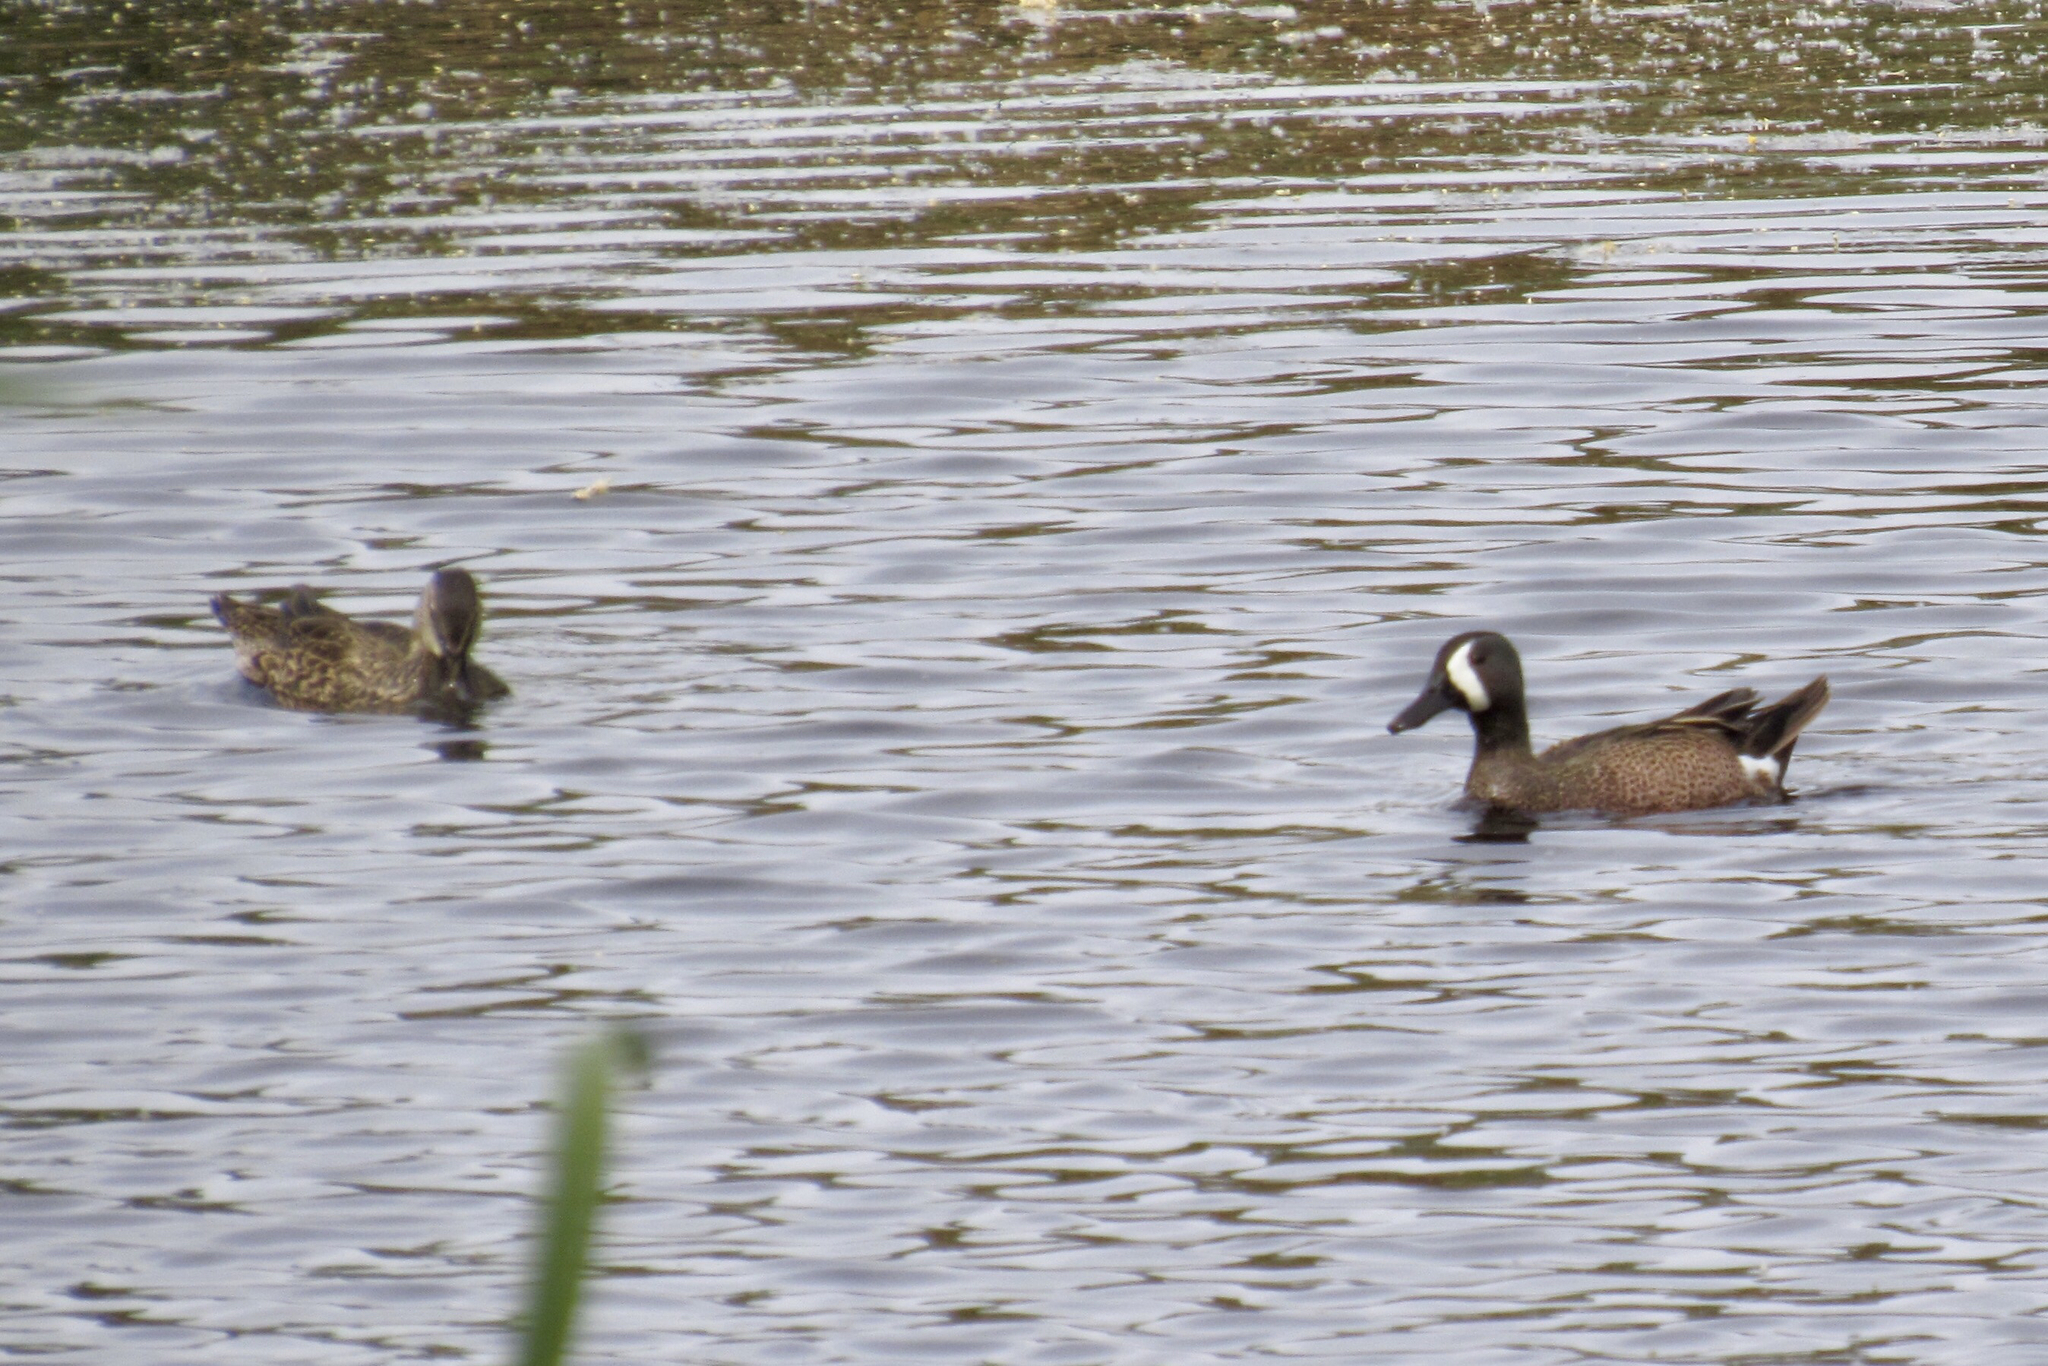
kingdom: Animalia
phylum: Chordata
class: Aves
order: Anseriformes
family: Anatidae
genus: Spatula
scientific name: Spatula discors
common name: Blue-winged teal
